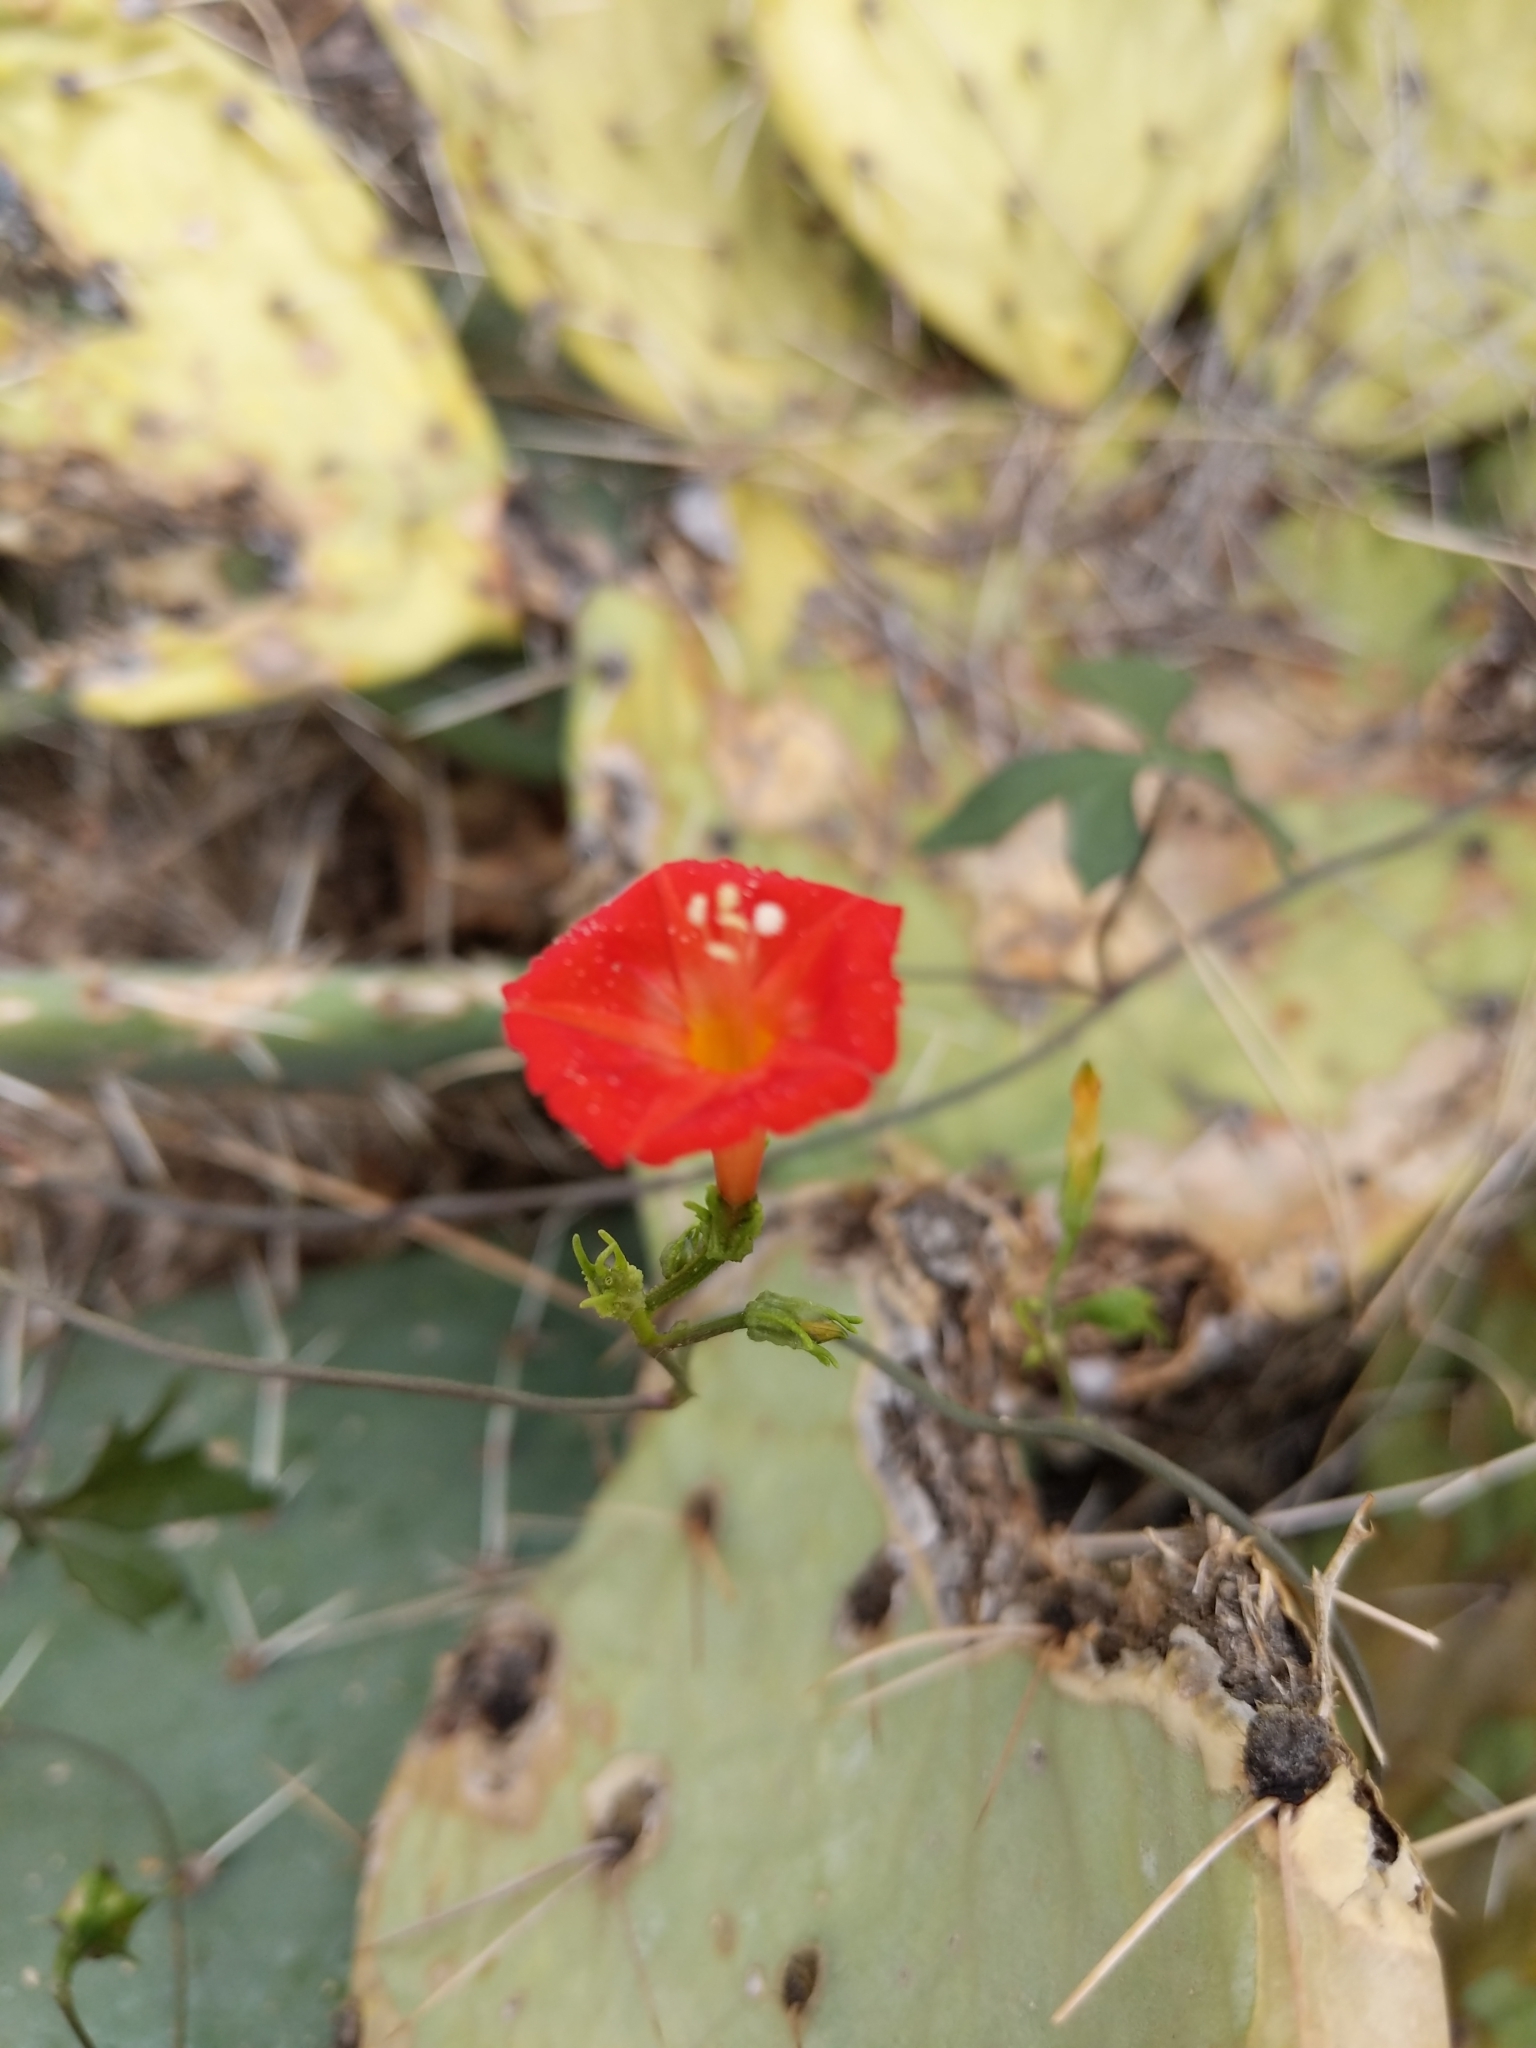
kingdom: Plantae
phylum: Tracheophyta
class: Magnoliopsida
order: Solanales
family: Convolvulaceae
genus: Ipomoea
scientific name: Ipomoea cristulata
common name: Trans-pecos morning-glory
